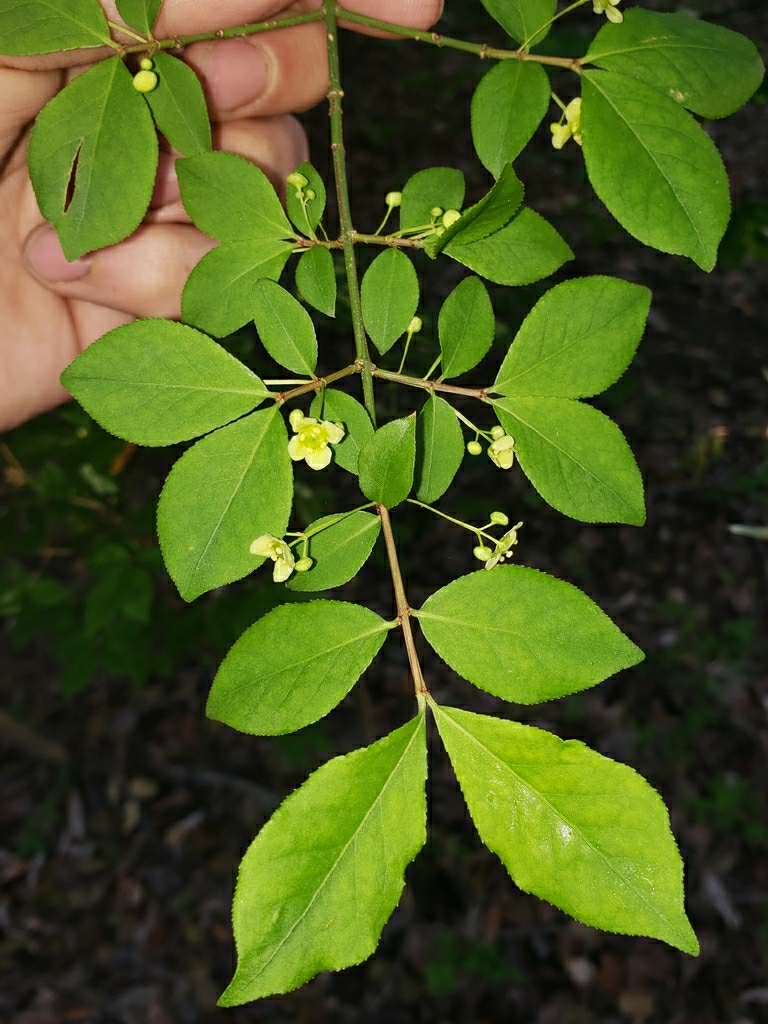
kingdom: Plantae
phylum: Tracheophyta
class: Magnoliopsida
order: Celastrales
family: Celastraceae
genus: Euonymus
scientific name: Euonymus alatus
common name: Winged euonymus
